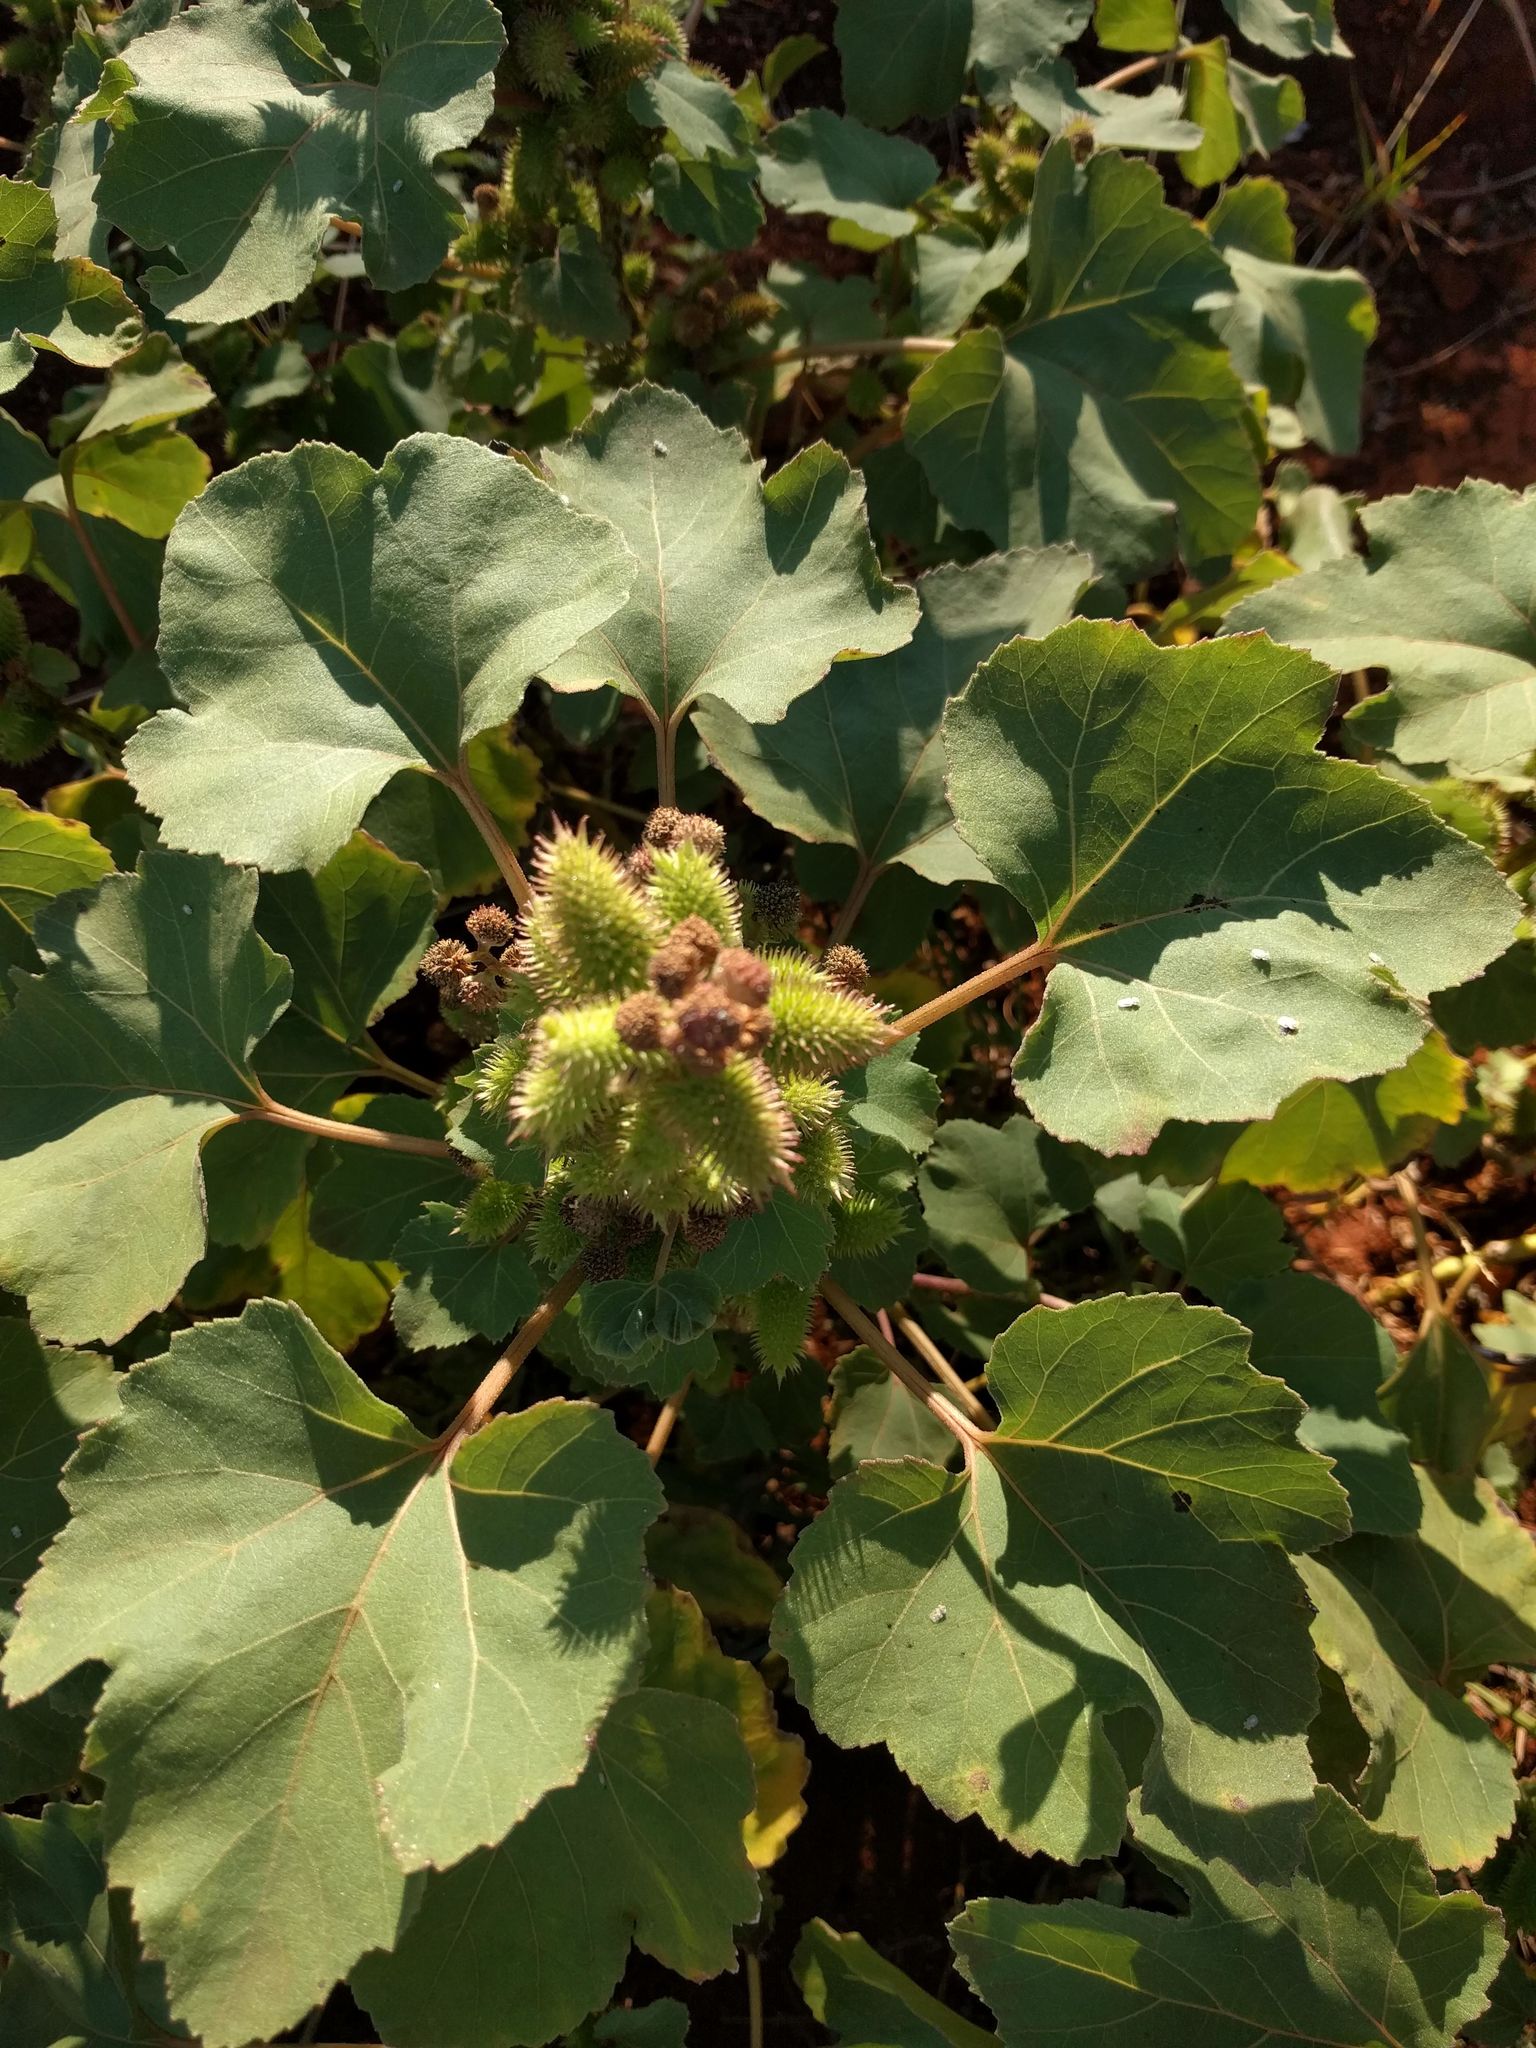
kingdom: Plantae
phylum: Tracheophyta
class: Magnoliopsida
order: Asterales
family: Asteraceae
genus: Xanthium
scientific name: Xanthium strumarium
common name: Rough cocklebur
